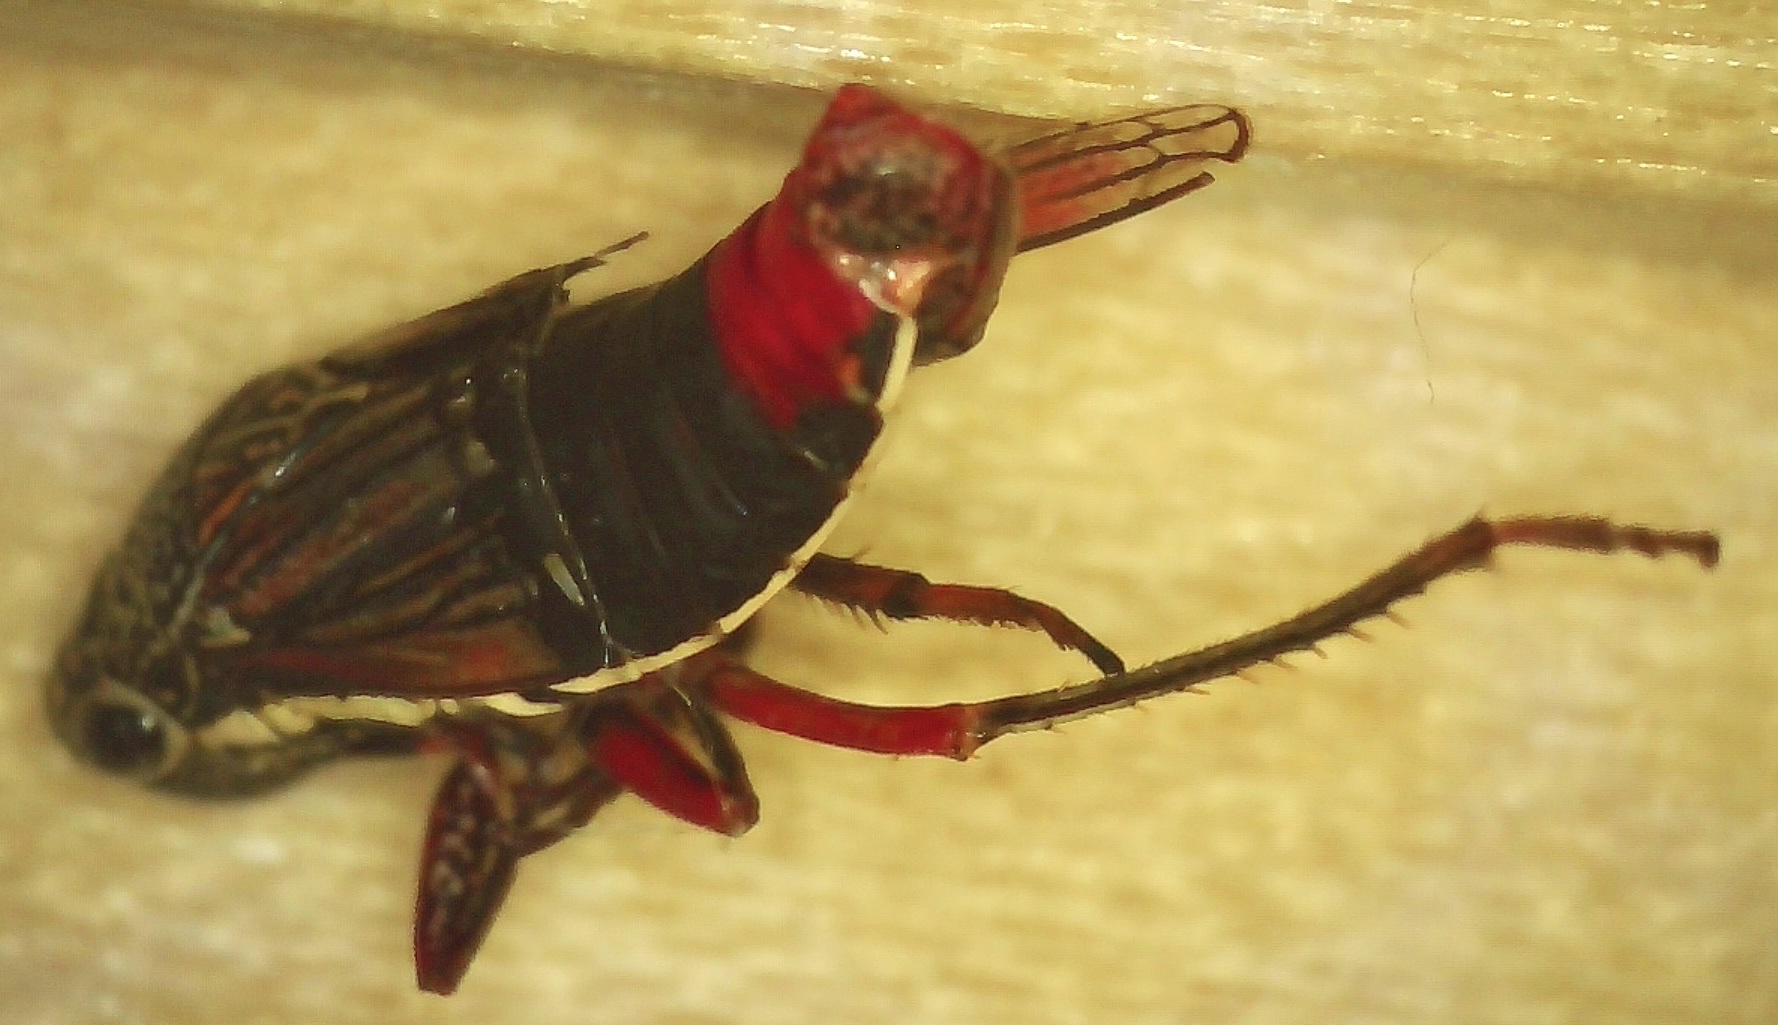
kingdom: Animalia
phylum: Arthropoda
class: Insecta
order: Hemiptera
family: Cicadellidae
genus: Cuerna
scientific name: Cuerna costalis
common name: Lateral-lined sharpshooter
